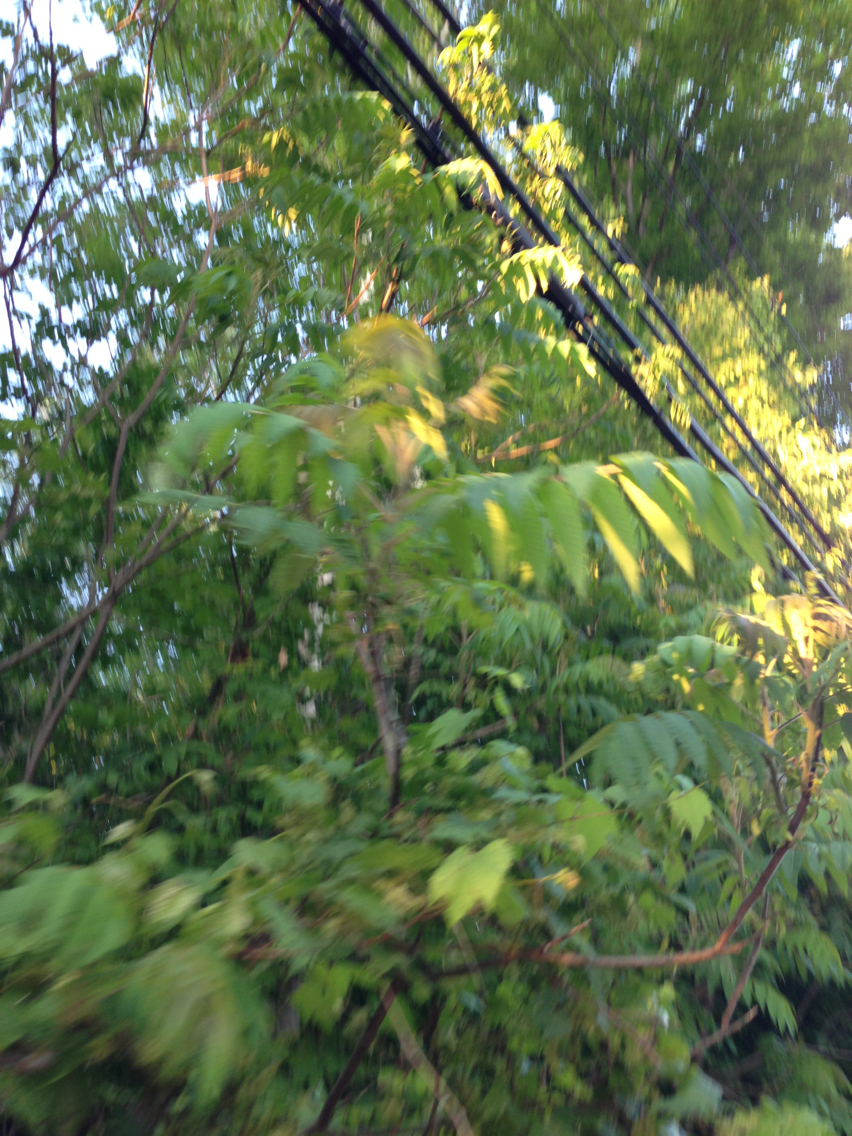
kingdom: Plantae
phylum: Tracheophyta
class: Magnoliopsida
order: Sapindales
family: Anacardiaceae
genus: Rhus
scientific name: Rhus typhina
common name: Staghorn sumac
